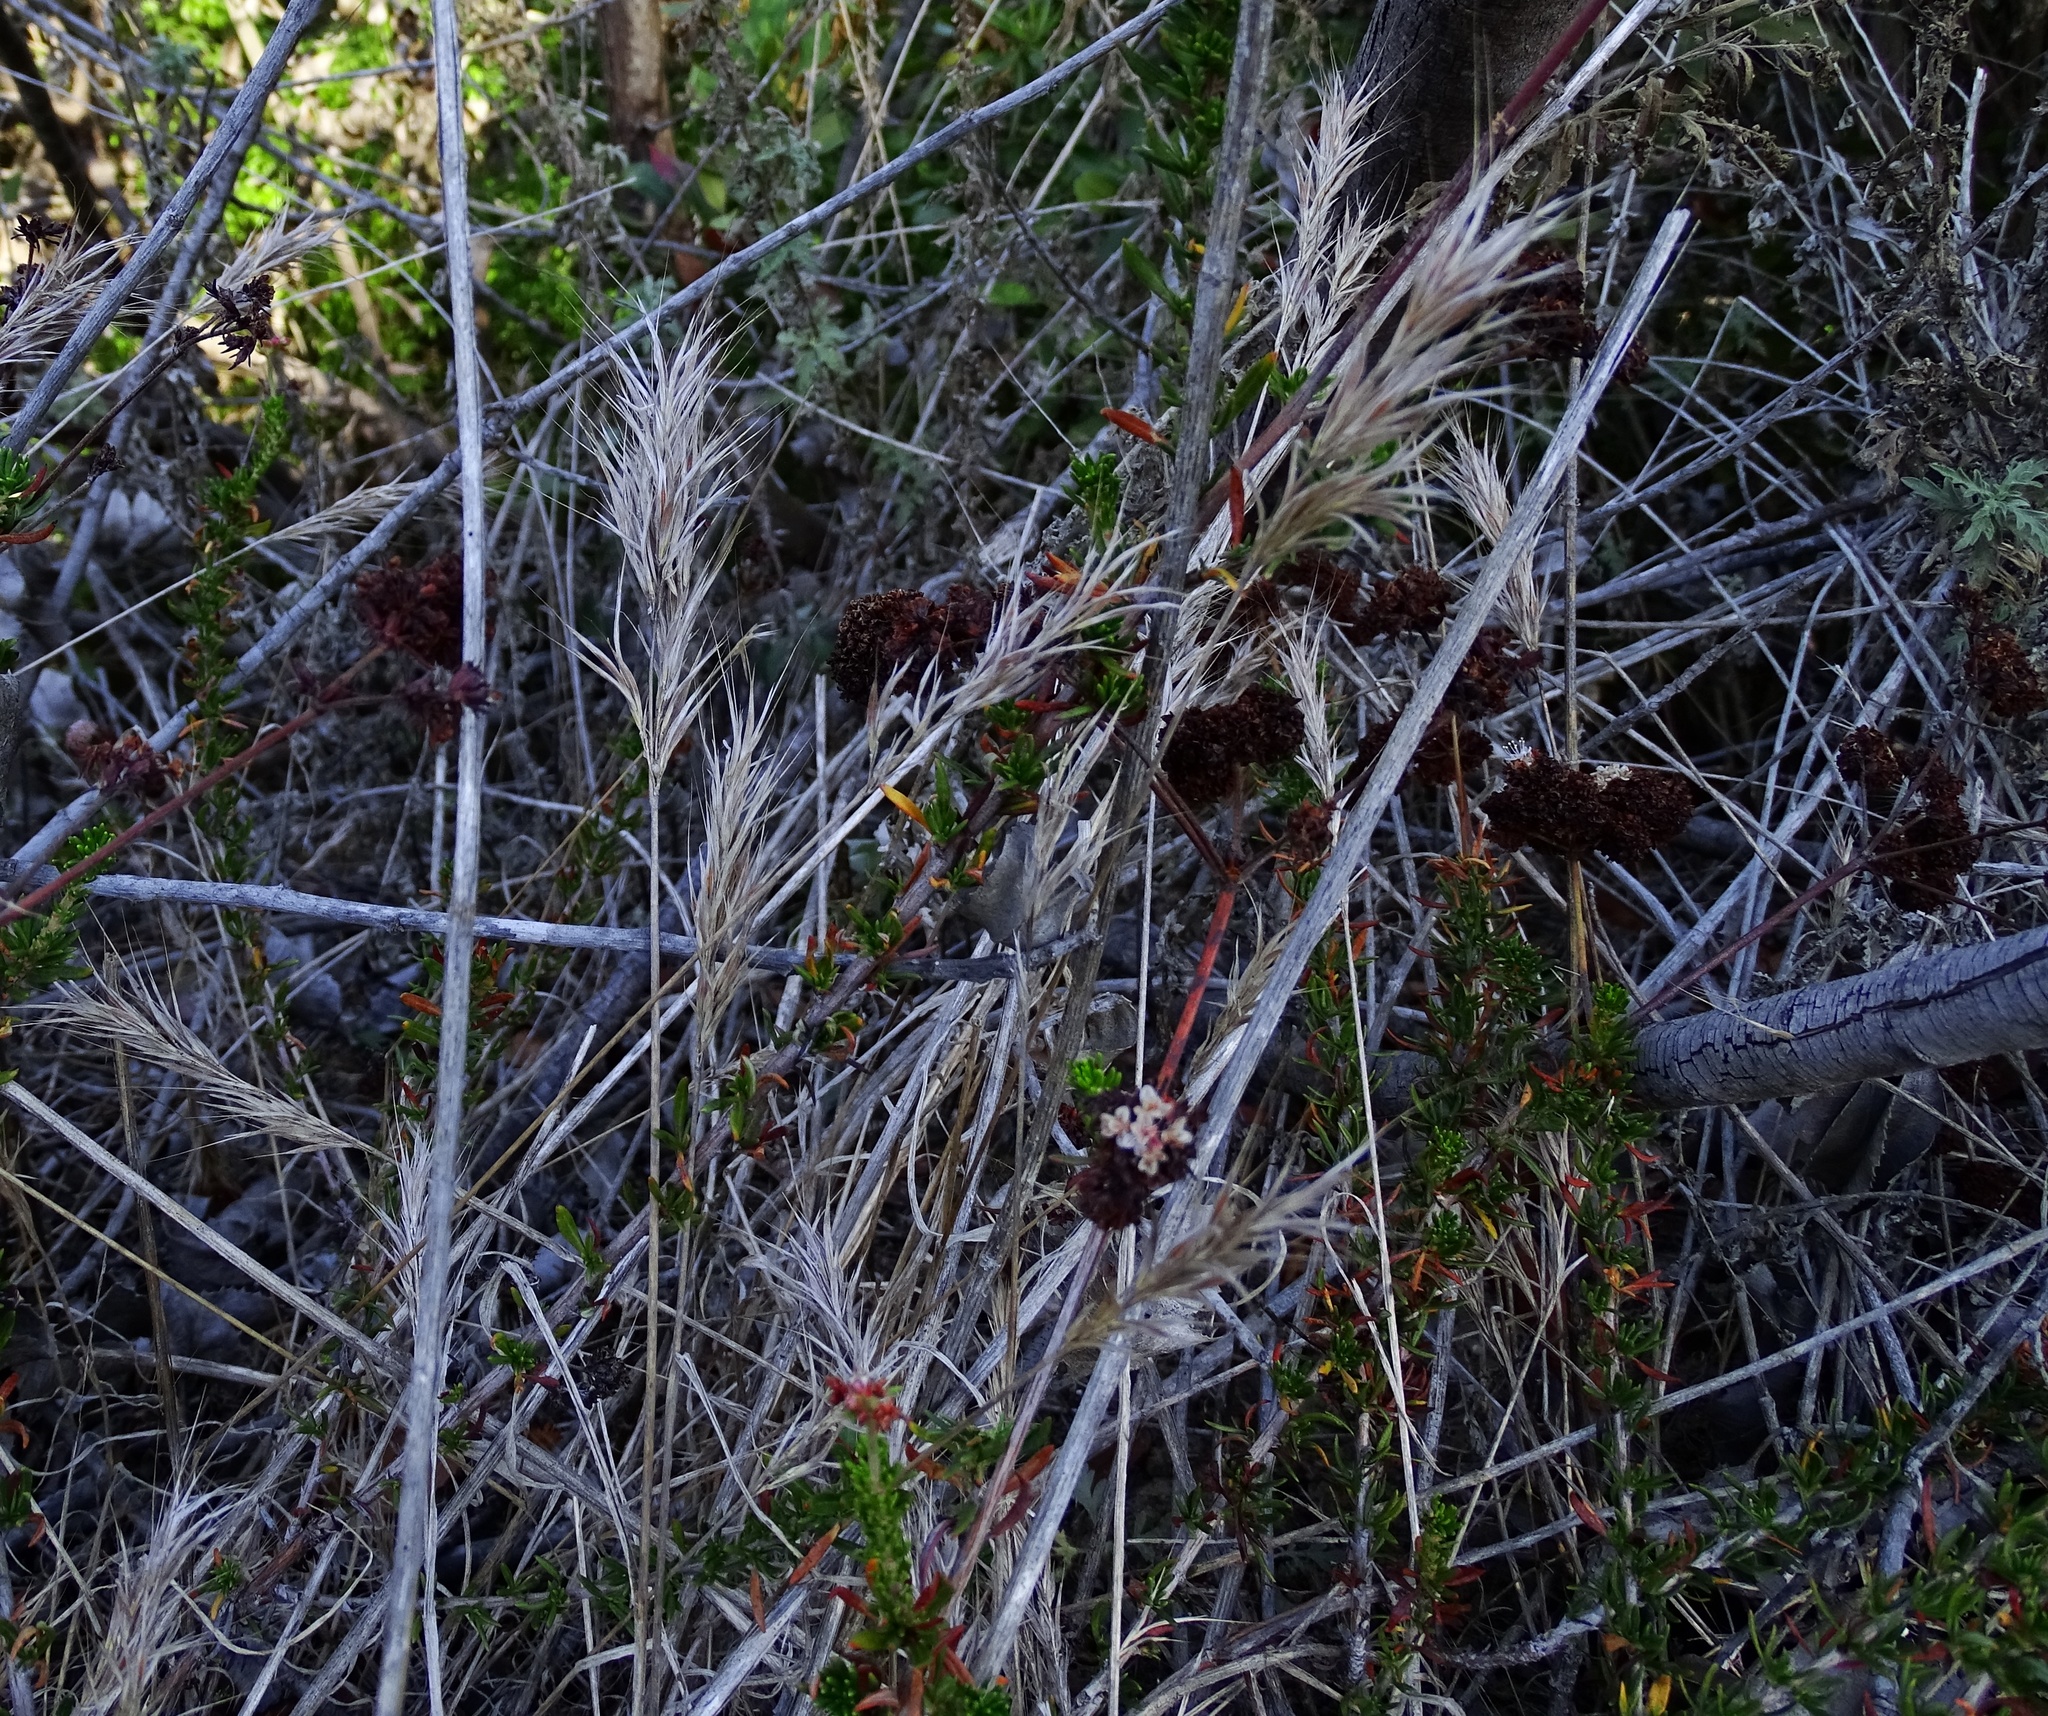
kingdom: Plantae
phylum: Tracheophyta
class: Liliopsida
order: Poales
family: Poaceae
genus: Bromus
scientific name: Bromus madritensis
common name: Compact brome
